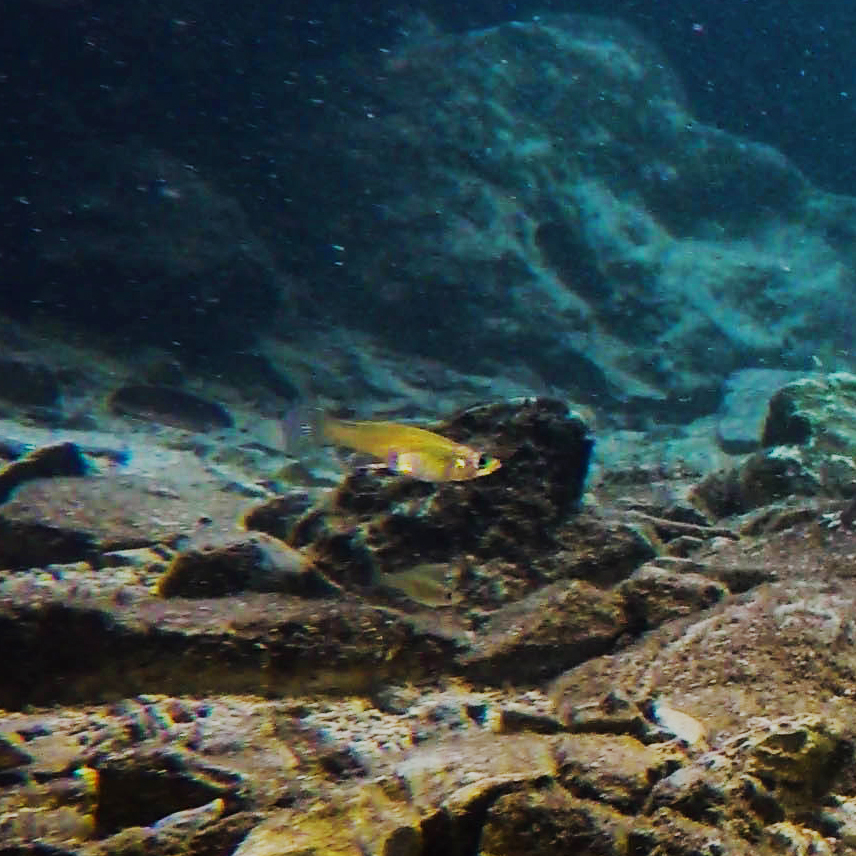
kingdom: Animalia
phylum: Chordata
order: Cyprinodontiformes
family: Poeciliidae
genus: Gambusia
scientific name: Gambusia yucatana
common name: Yucatan gambusia
